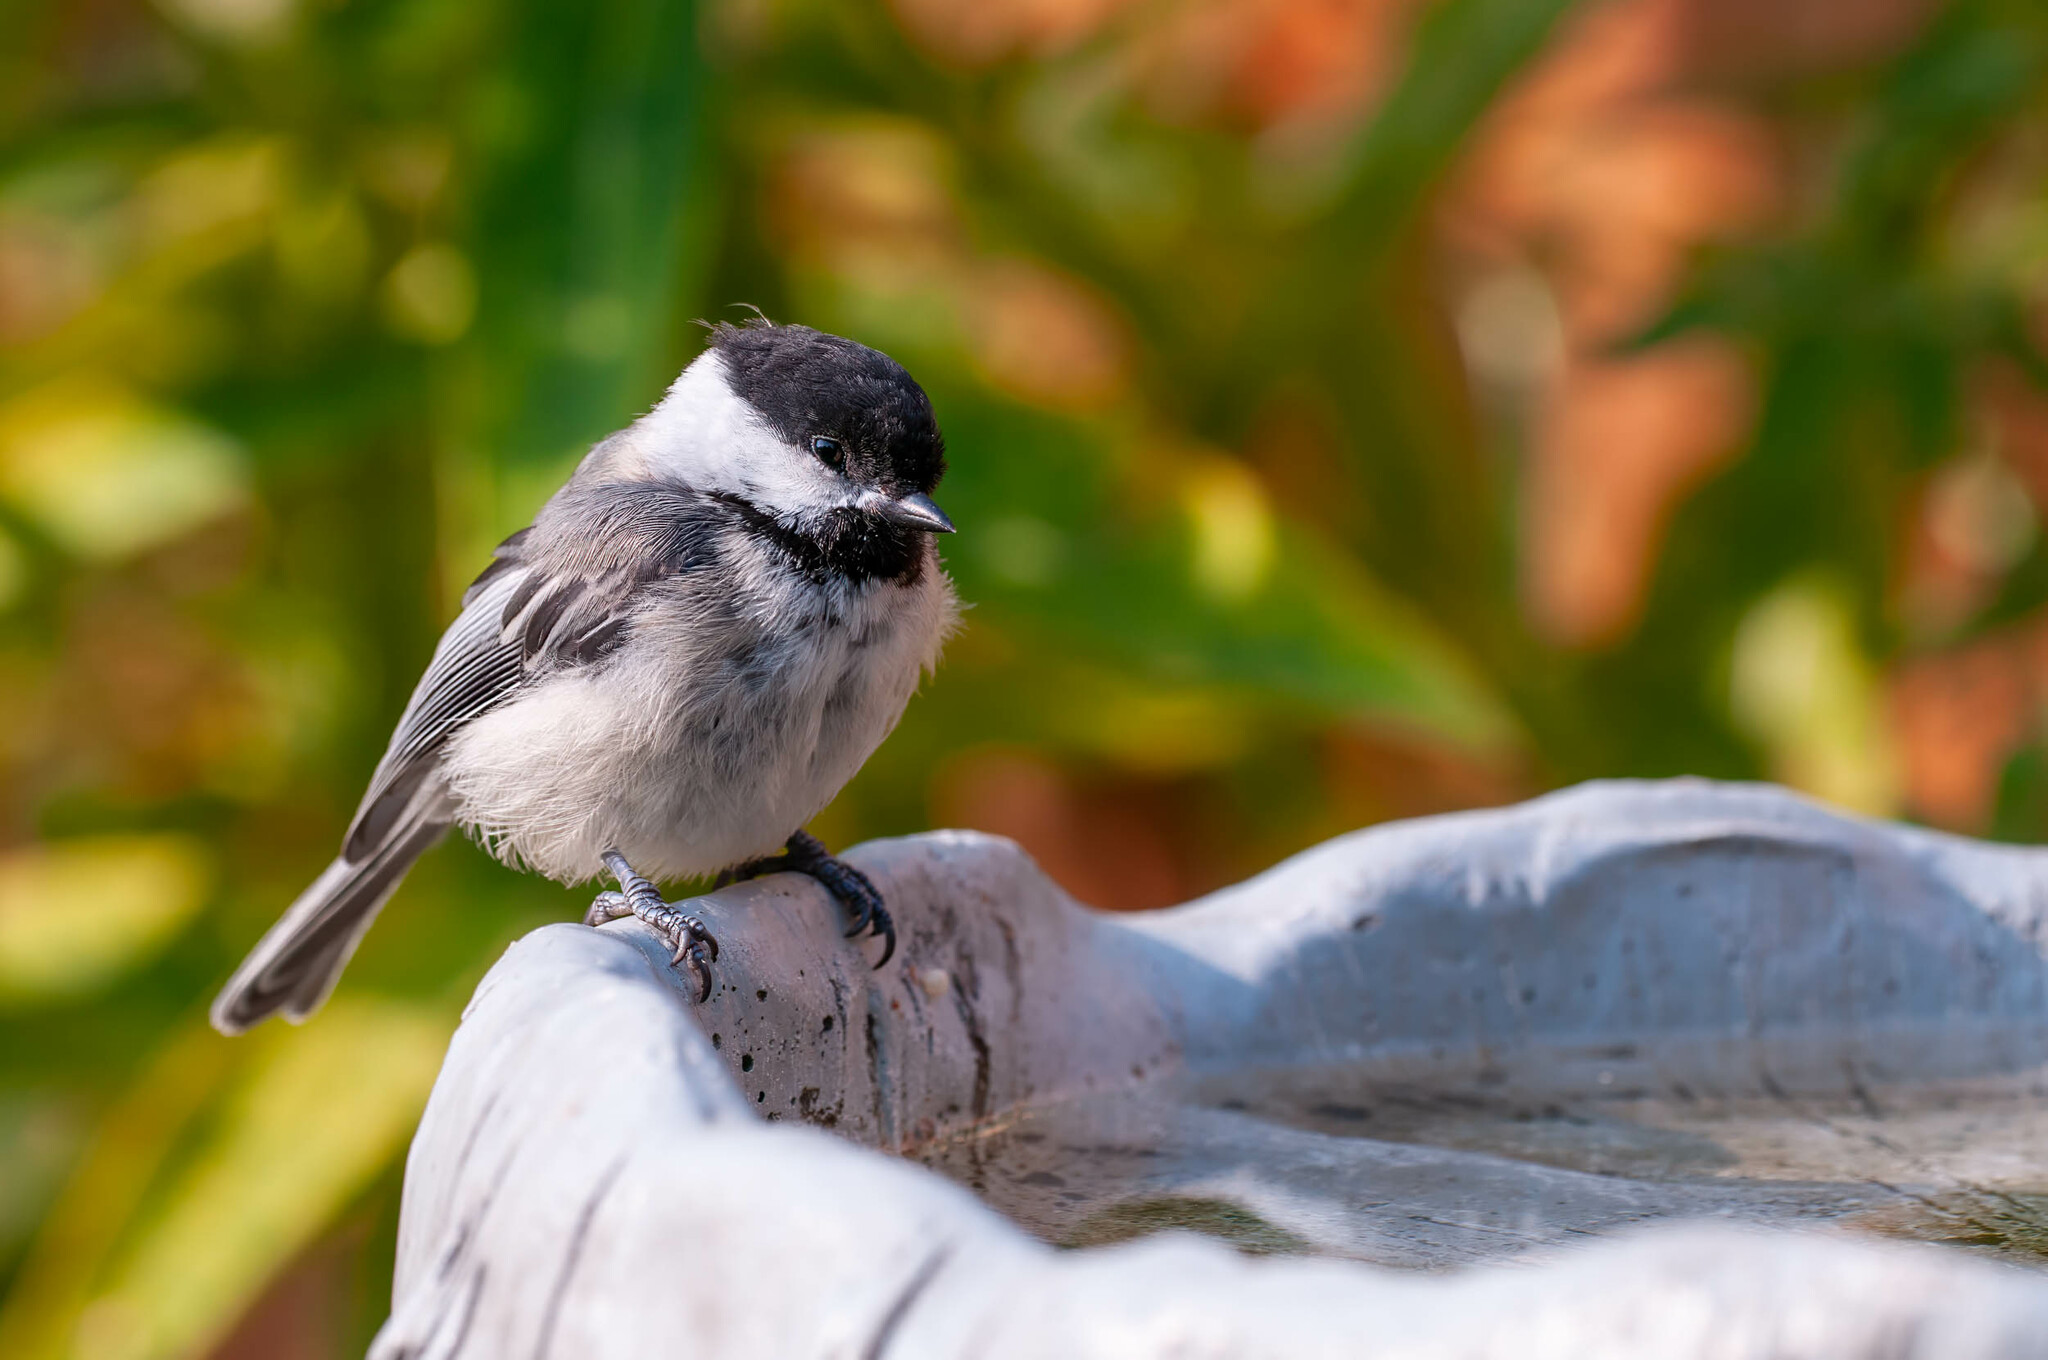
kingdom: Animalia
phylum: Chordata
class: Aves
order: Passeriformes
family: Paridae
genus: Poecile
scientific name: Poecile atricapillus
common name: Black-capped chickadee
